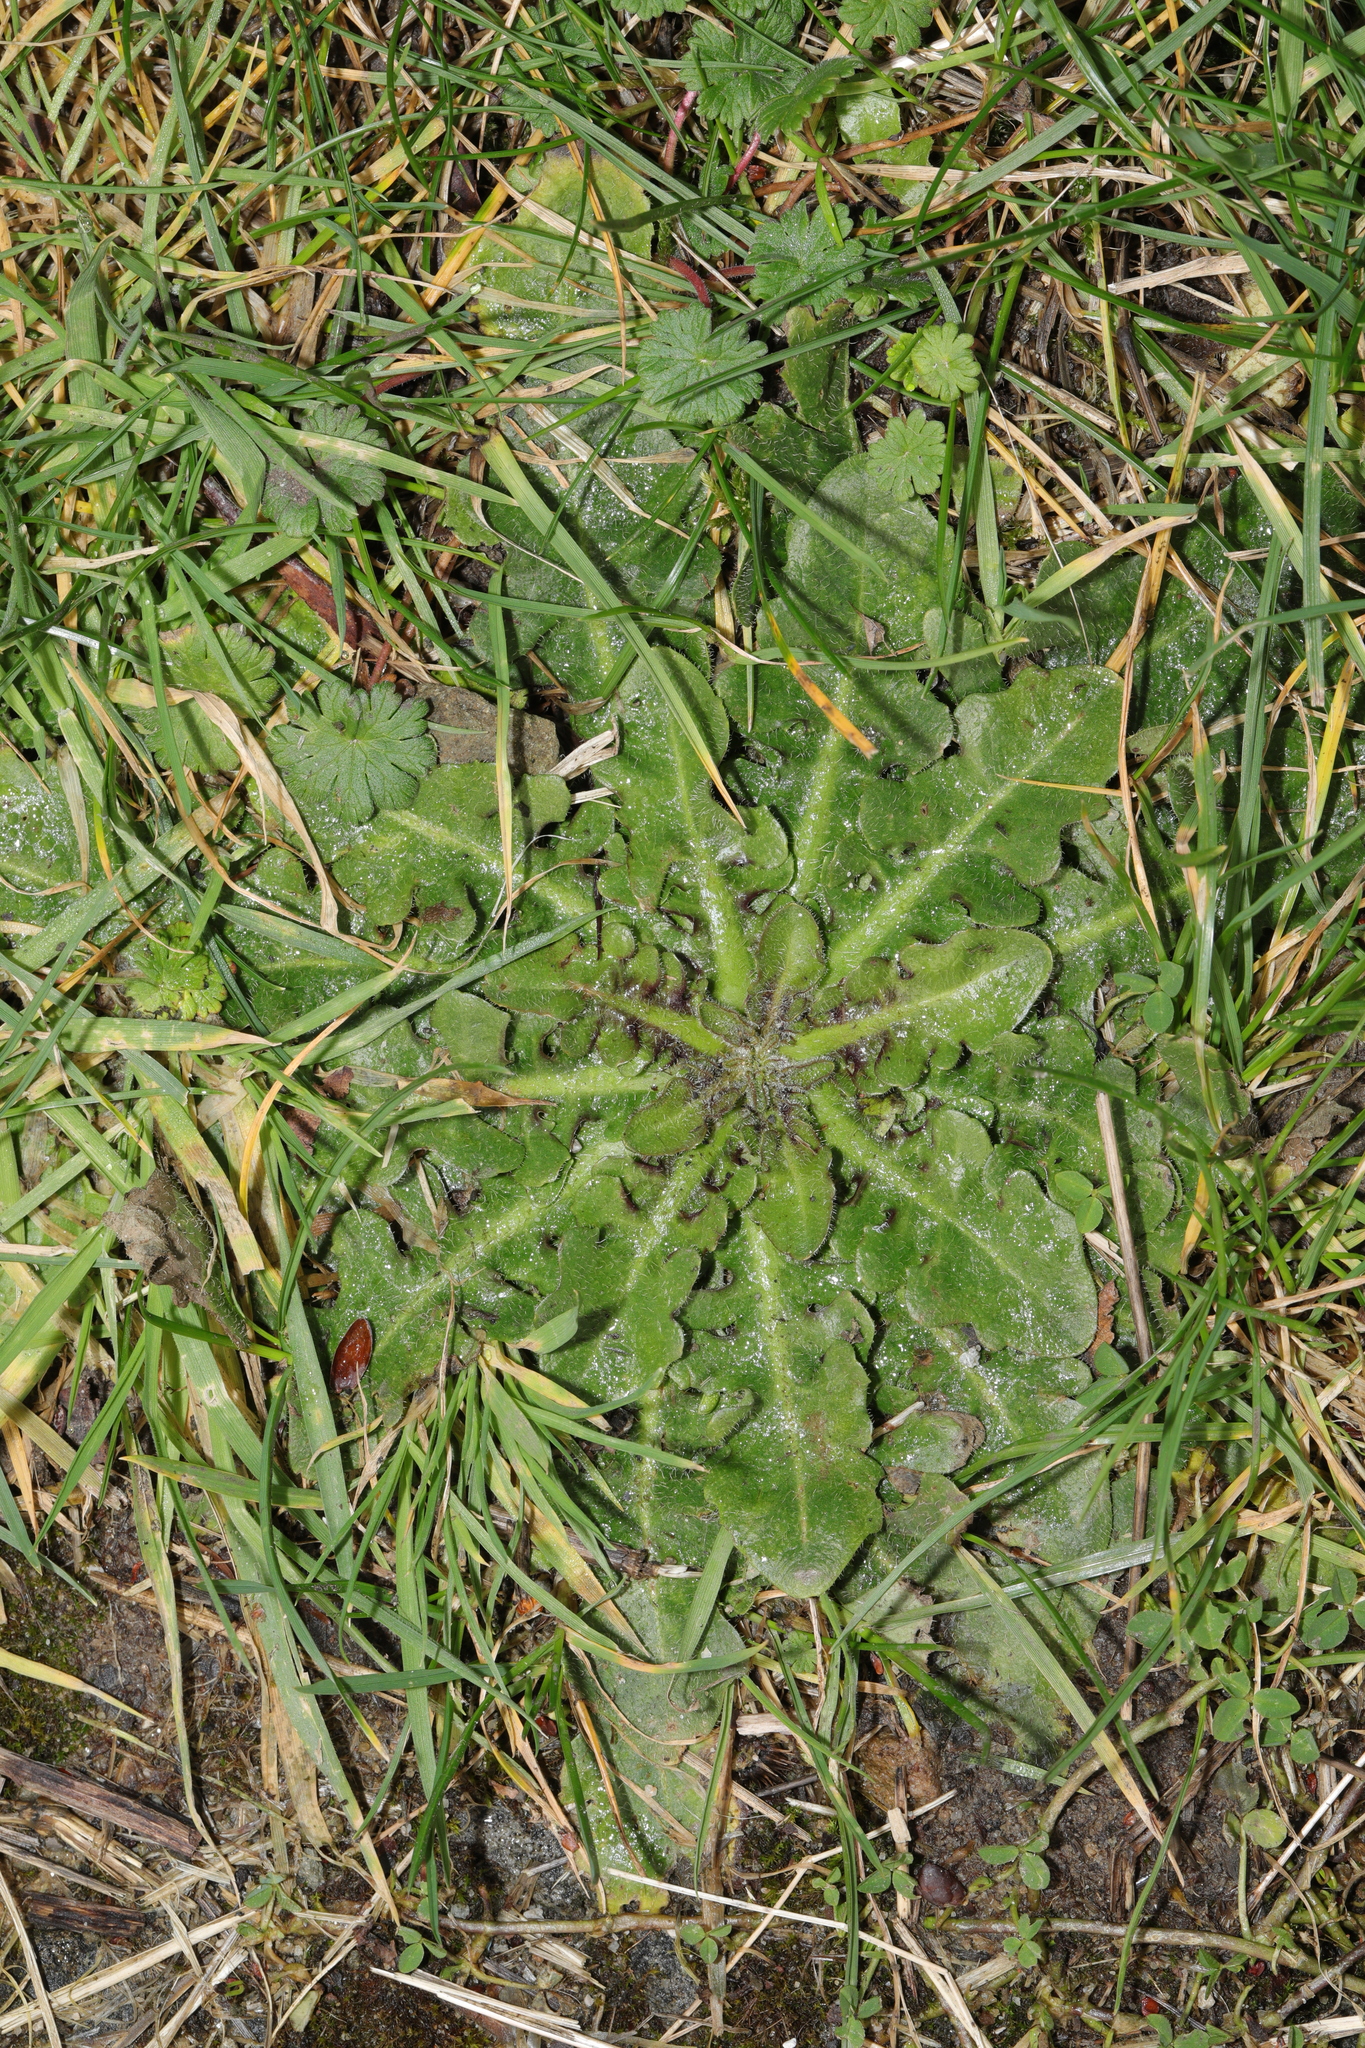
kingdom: Plantae
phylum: Tracheophyta
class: Magnoliopsida
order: Asterales
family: Asteraceae
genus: Hypochaeris
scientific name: Hypochaeris radicata
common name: Flatweed
